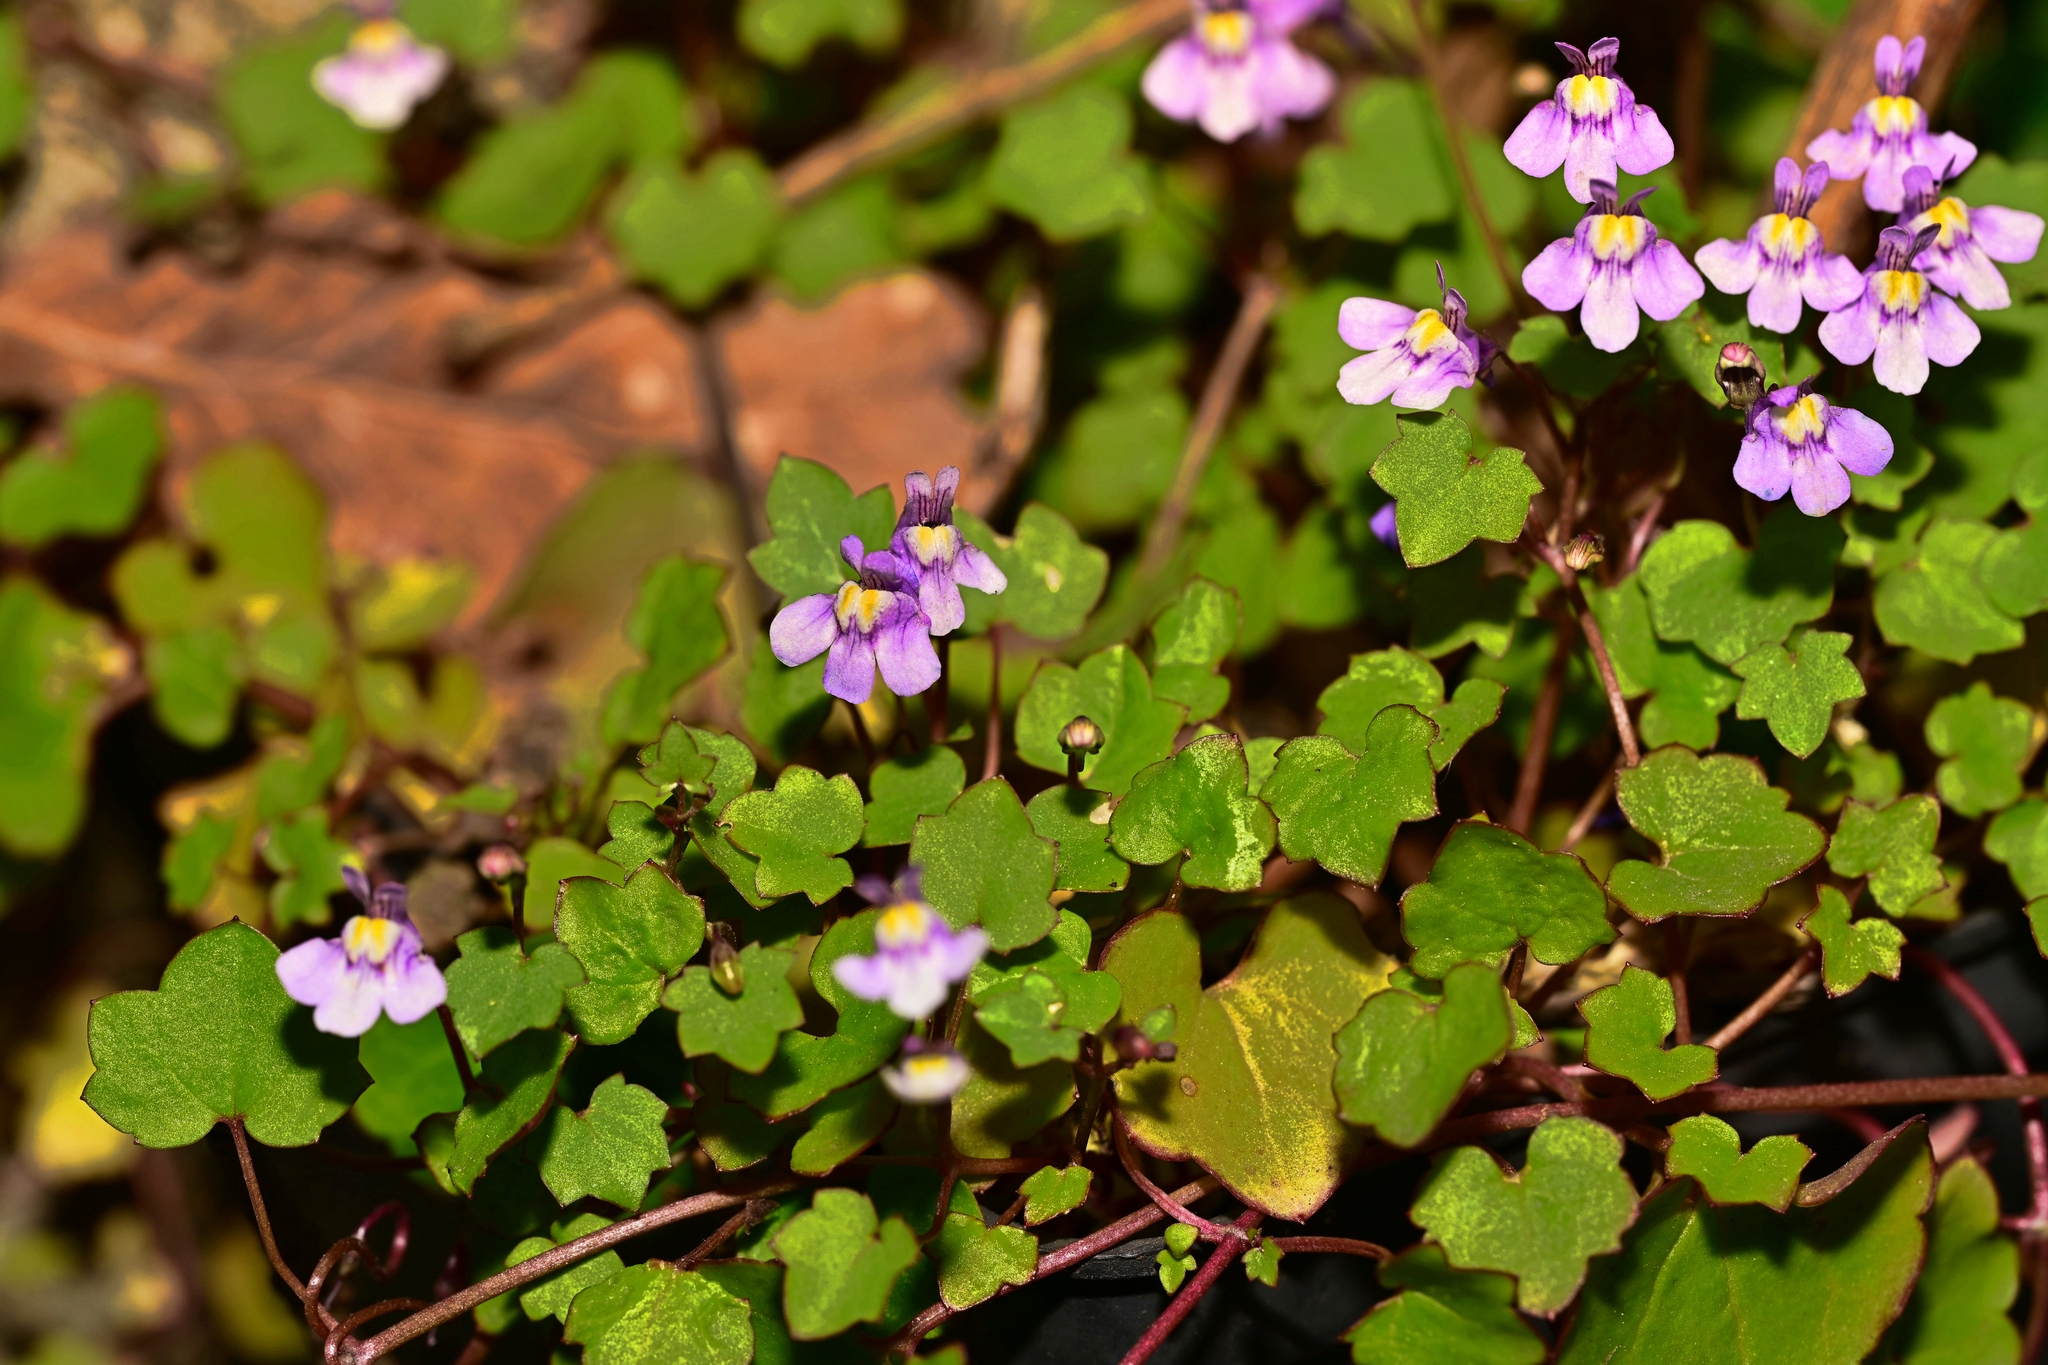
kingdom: Plantae
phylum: Tracheophyta
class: Magnoliopsida
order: Lamiales
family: Plantaginaceae
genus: Cymbalaria
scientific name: Cymbalaria muralis
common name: Ivy-leaved toadflax
